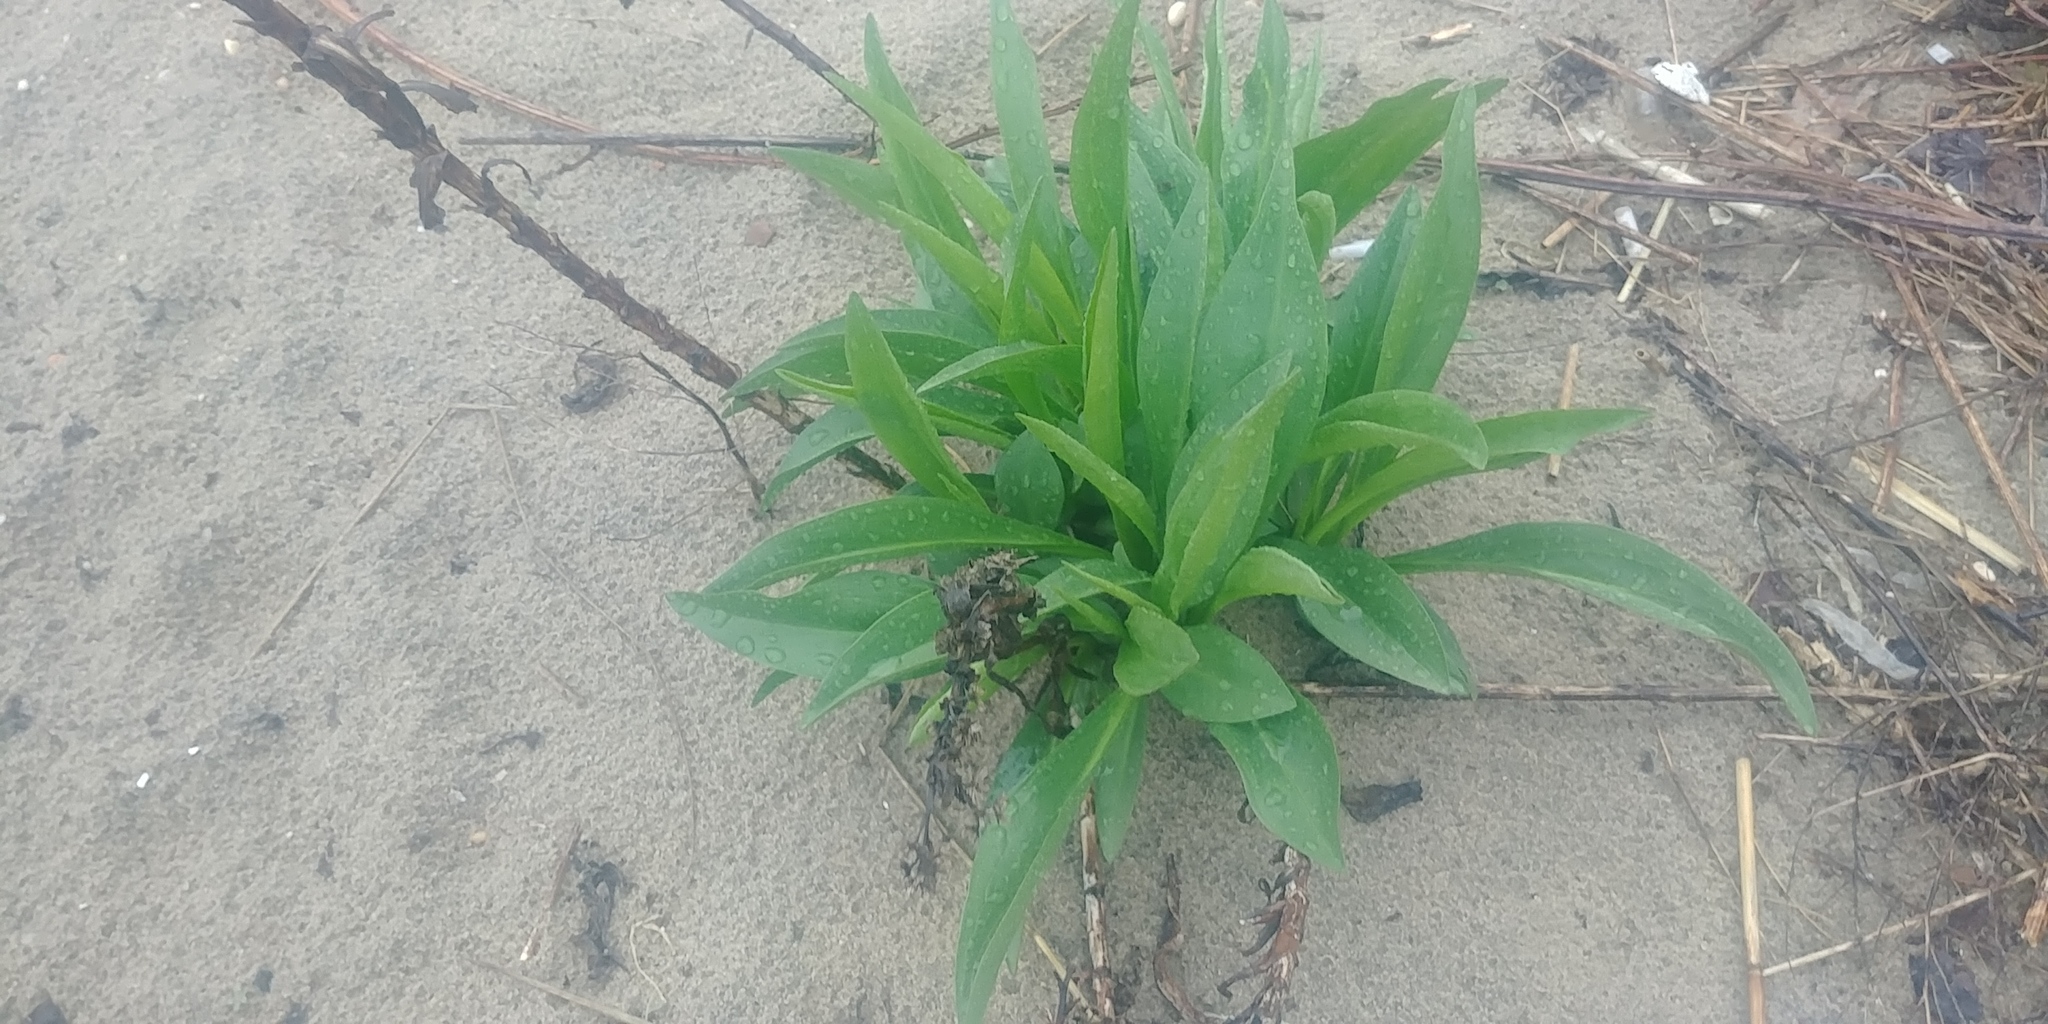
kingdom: Plantae
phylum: Tracheophyta
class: Magnoliopsida
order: Asterales
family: Asteraceae
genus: Solidago
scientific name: Solidago sempervirens
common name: Salt-marsh goldenrod
